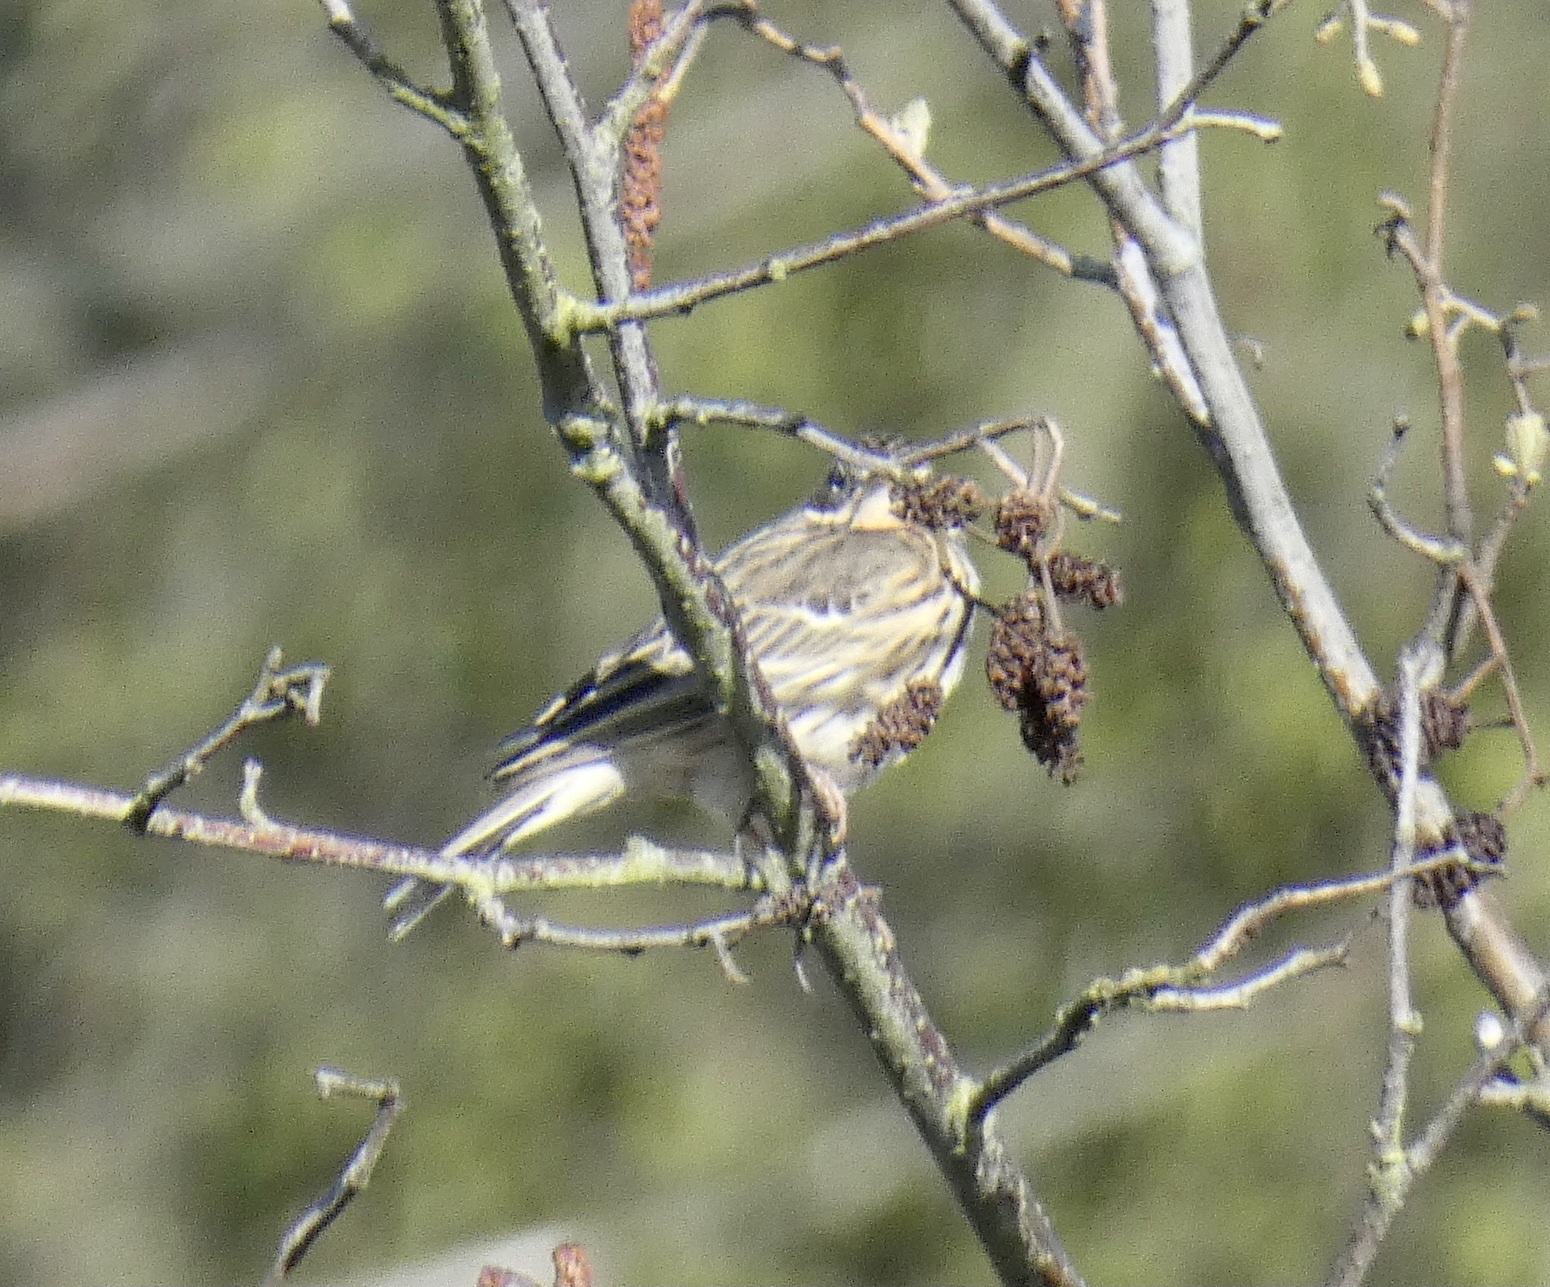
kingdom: Animalia
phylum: Chordata
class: Aves
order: Passeriformes
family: Motacillidae
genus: Anthus
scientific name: Anthus pratensis
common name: Meadow pipit
